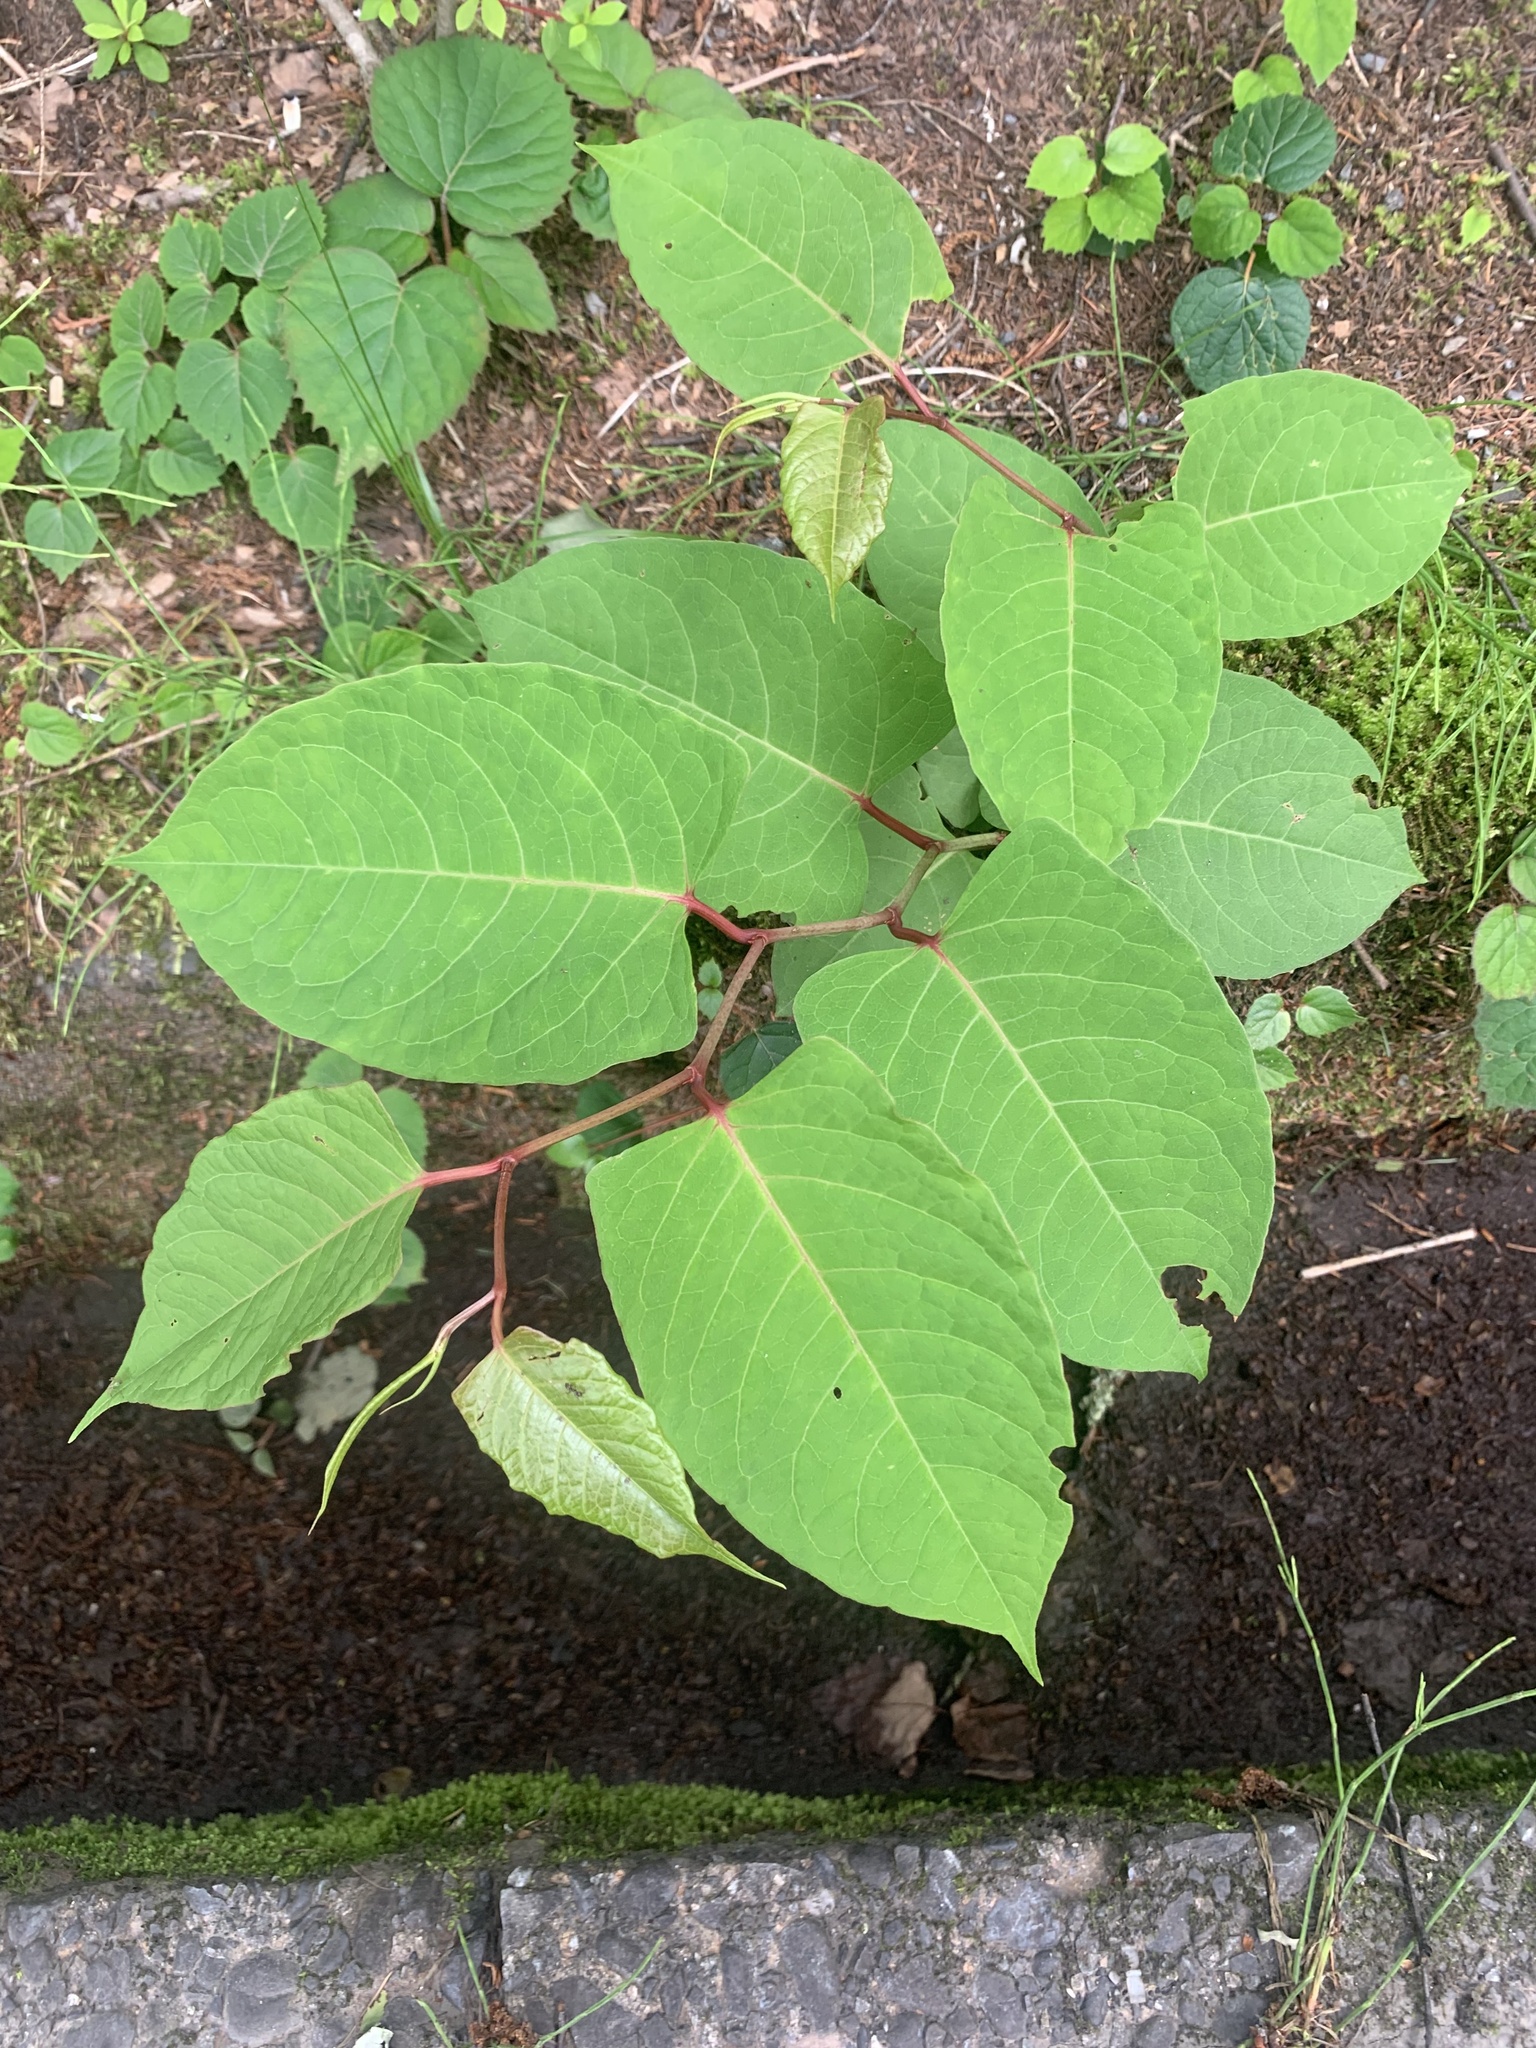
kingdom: Plantae
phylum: Tracheophyta
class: Magnoliopsida
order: Caryophyllales
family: Polygonaceae
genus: Reynoutria
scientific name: Reynoutria japonica
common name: Japanese knotweed
